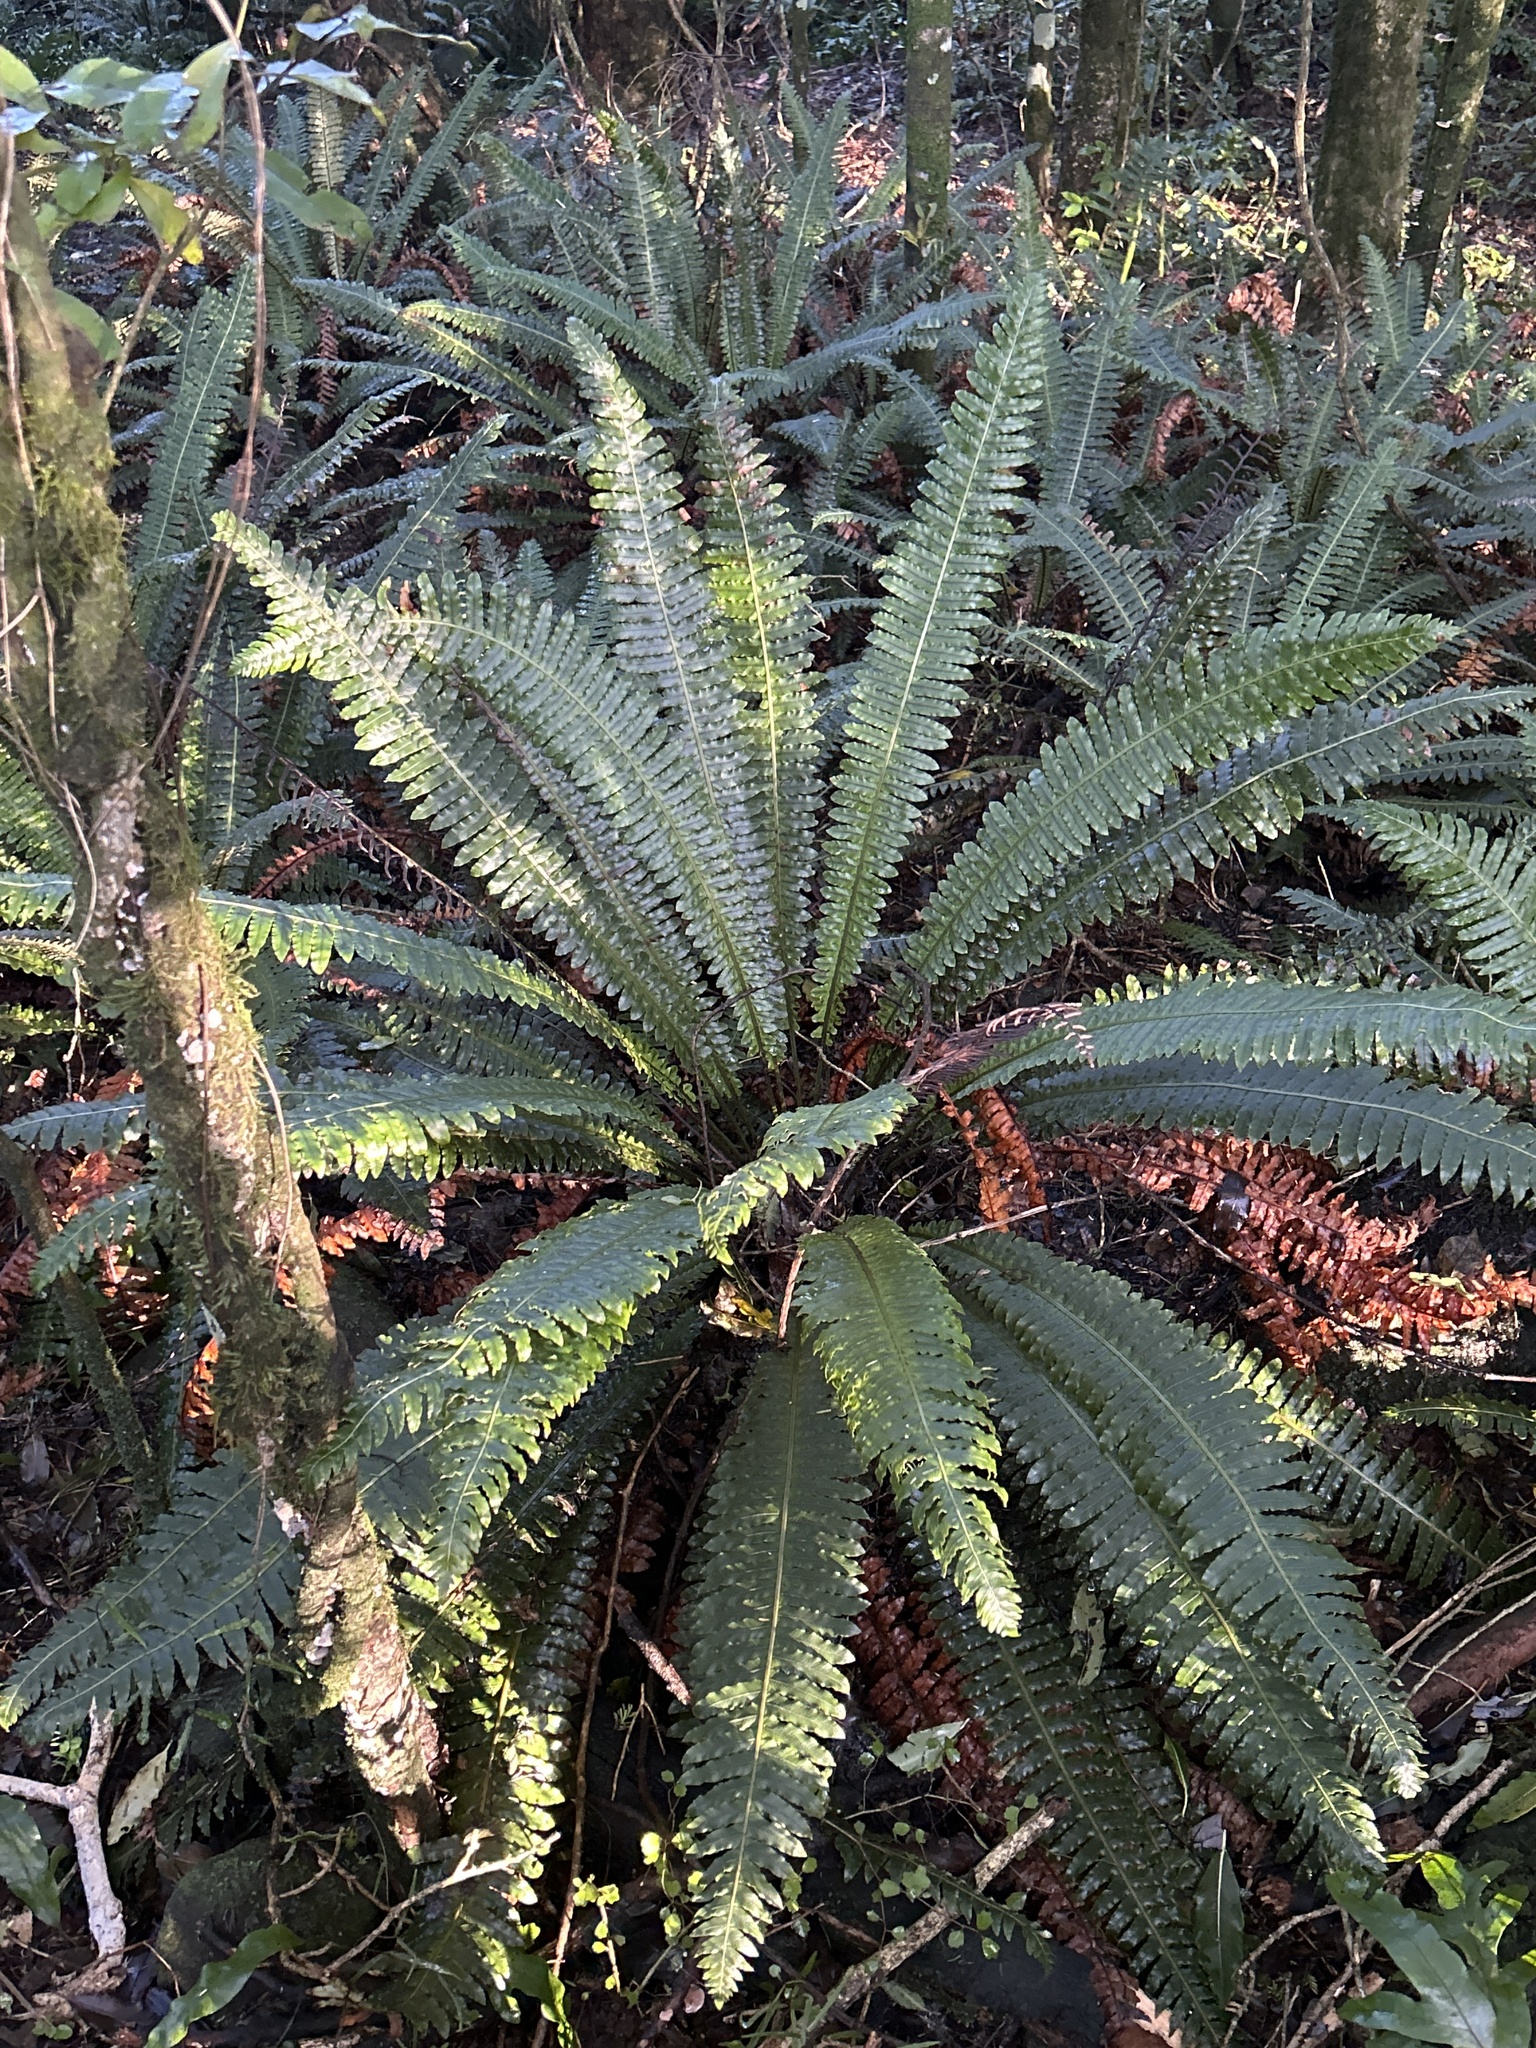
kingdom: Plantae
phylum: Tracheophyta
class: Polypodiopsida
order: Polypodiales
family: Blechnaceae
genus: Lomaria
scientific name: Lomaria discolor
